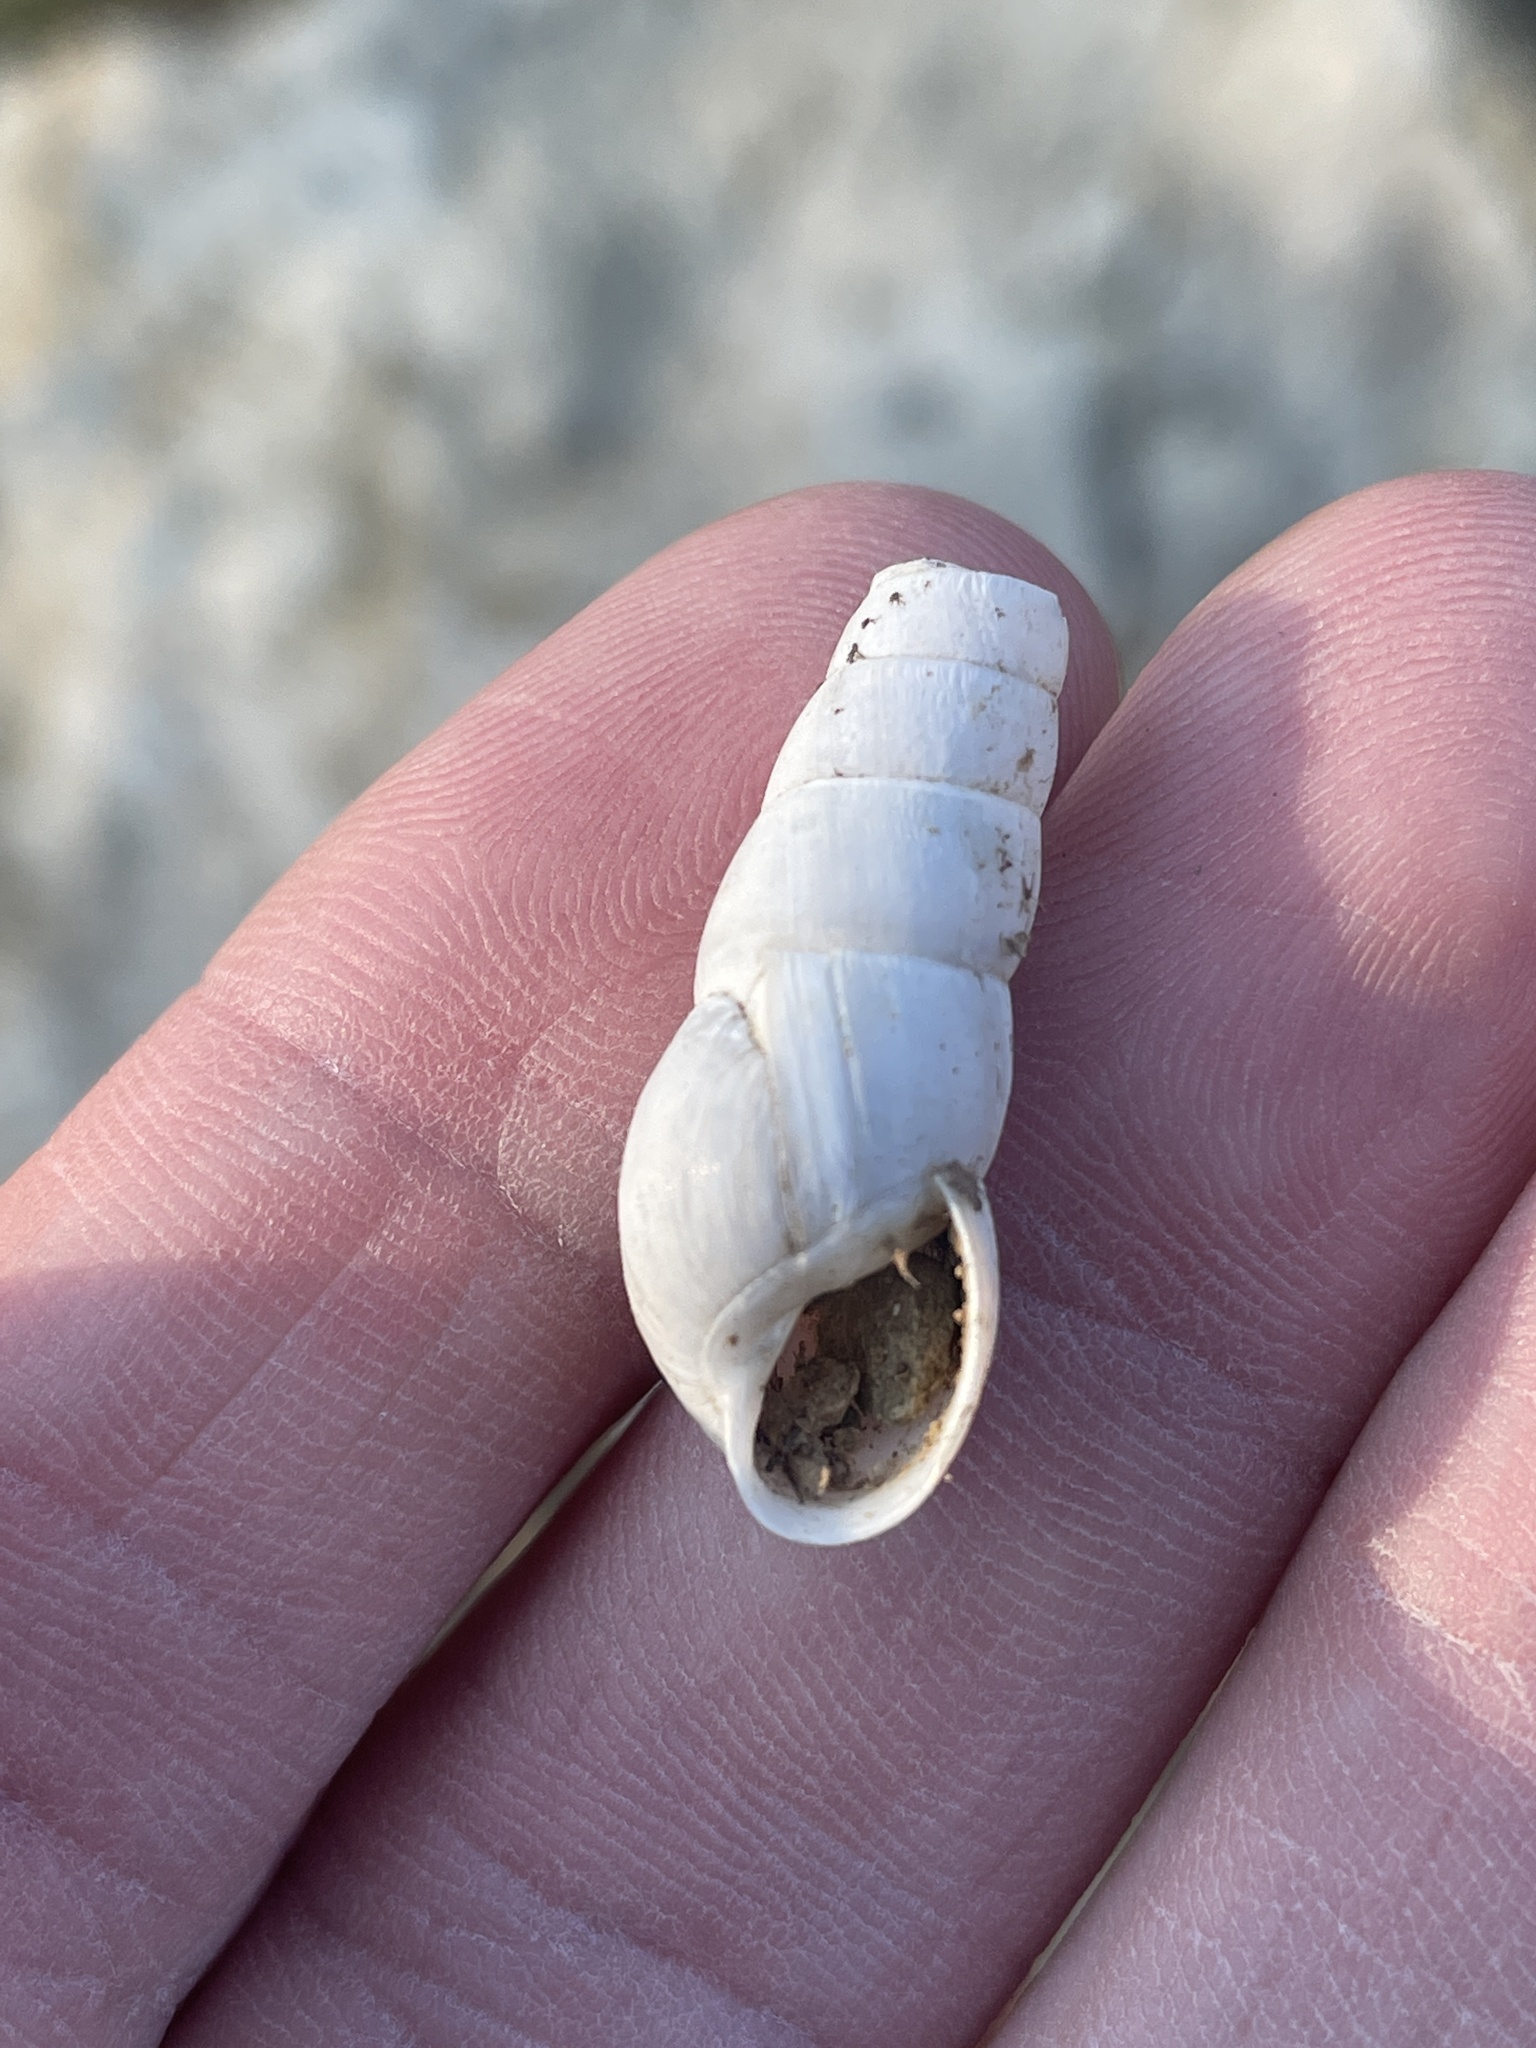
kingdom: Animalia
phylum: Mollusca
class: Gastropoda
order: Stylommatophora
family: Achatinidae
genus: Rumina
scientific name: Rumina decollata
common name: Decollate snail
